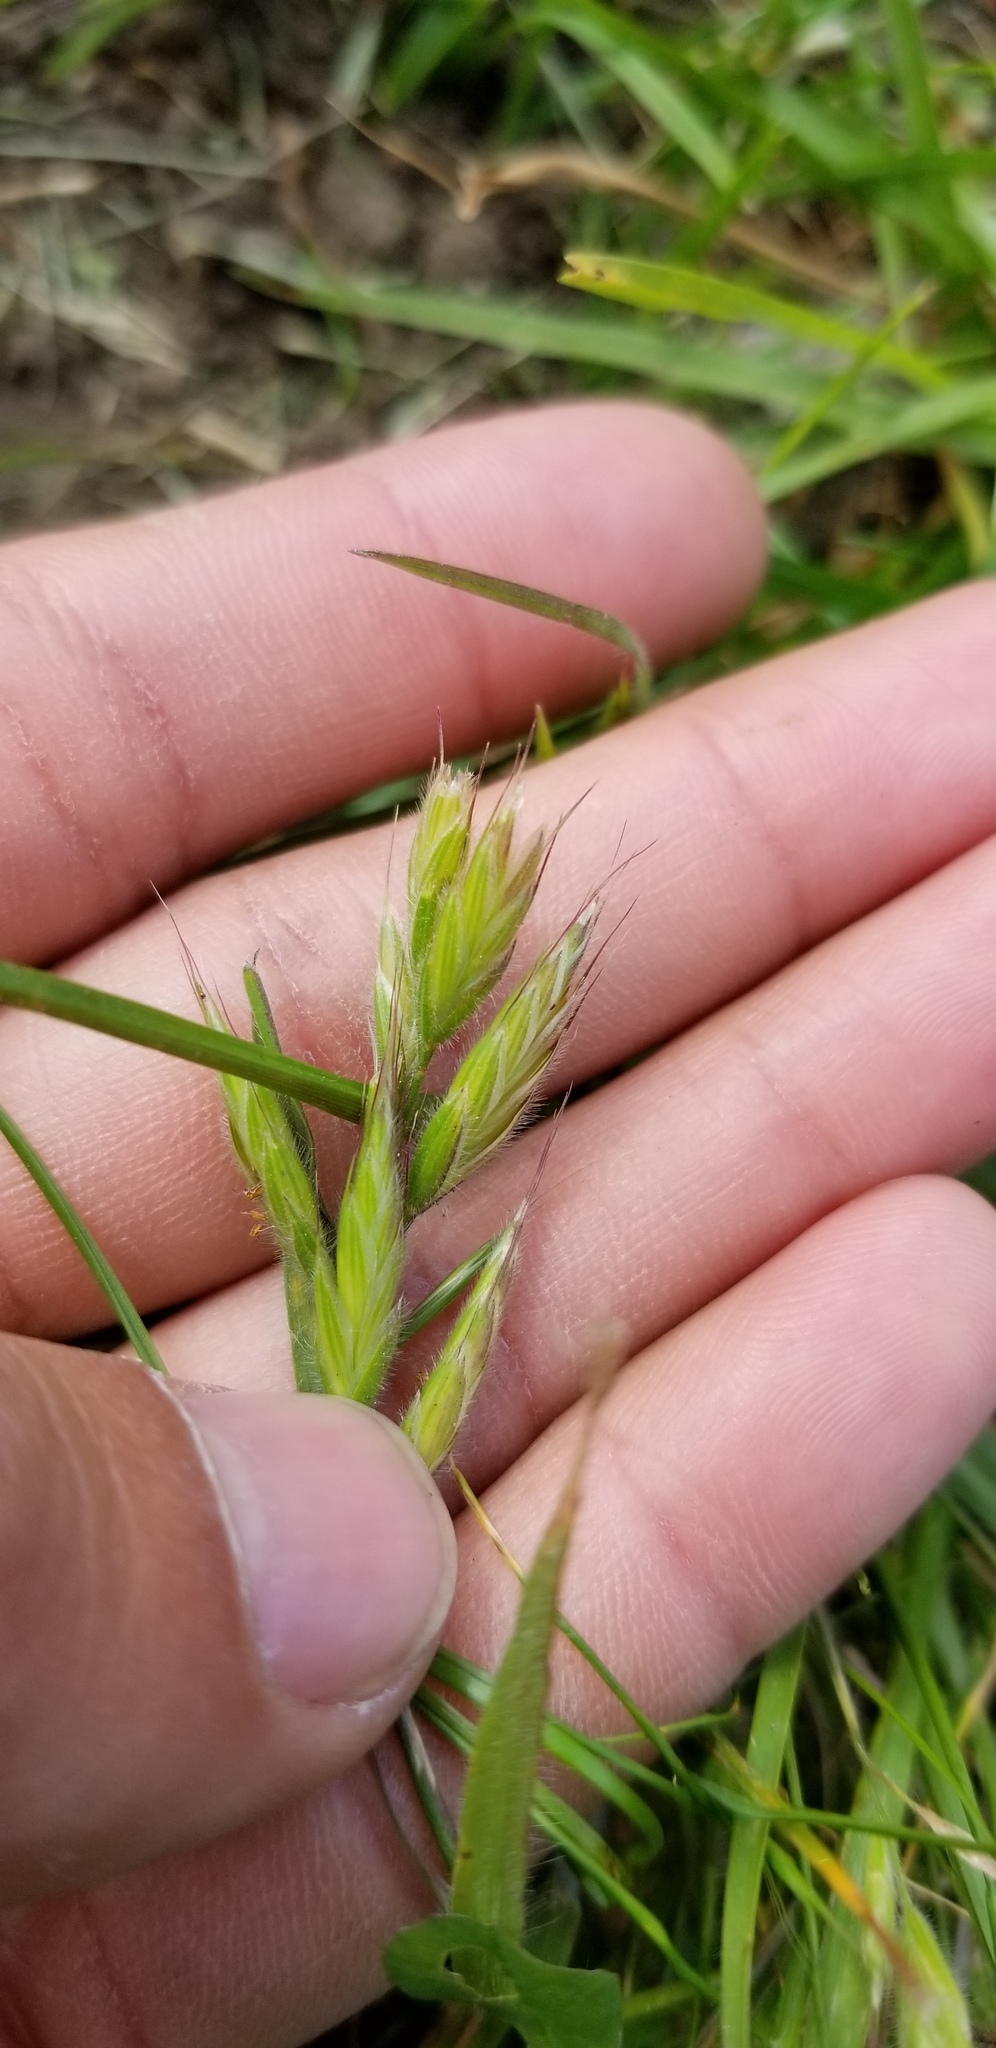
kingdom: Plantae
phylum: Tracheophyta
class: Liliopsida
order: Poales
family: Poaceae
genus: Bromus
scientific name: Bromus hordeaceus
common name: Soft brome
